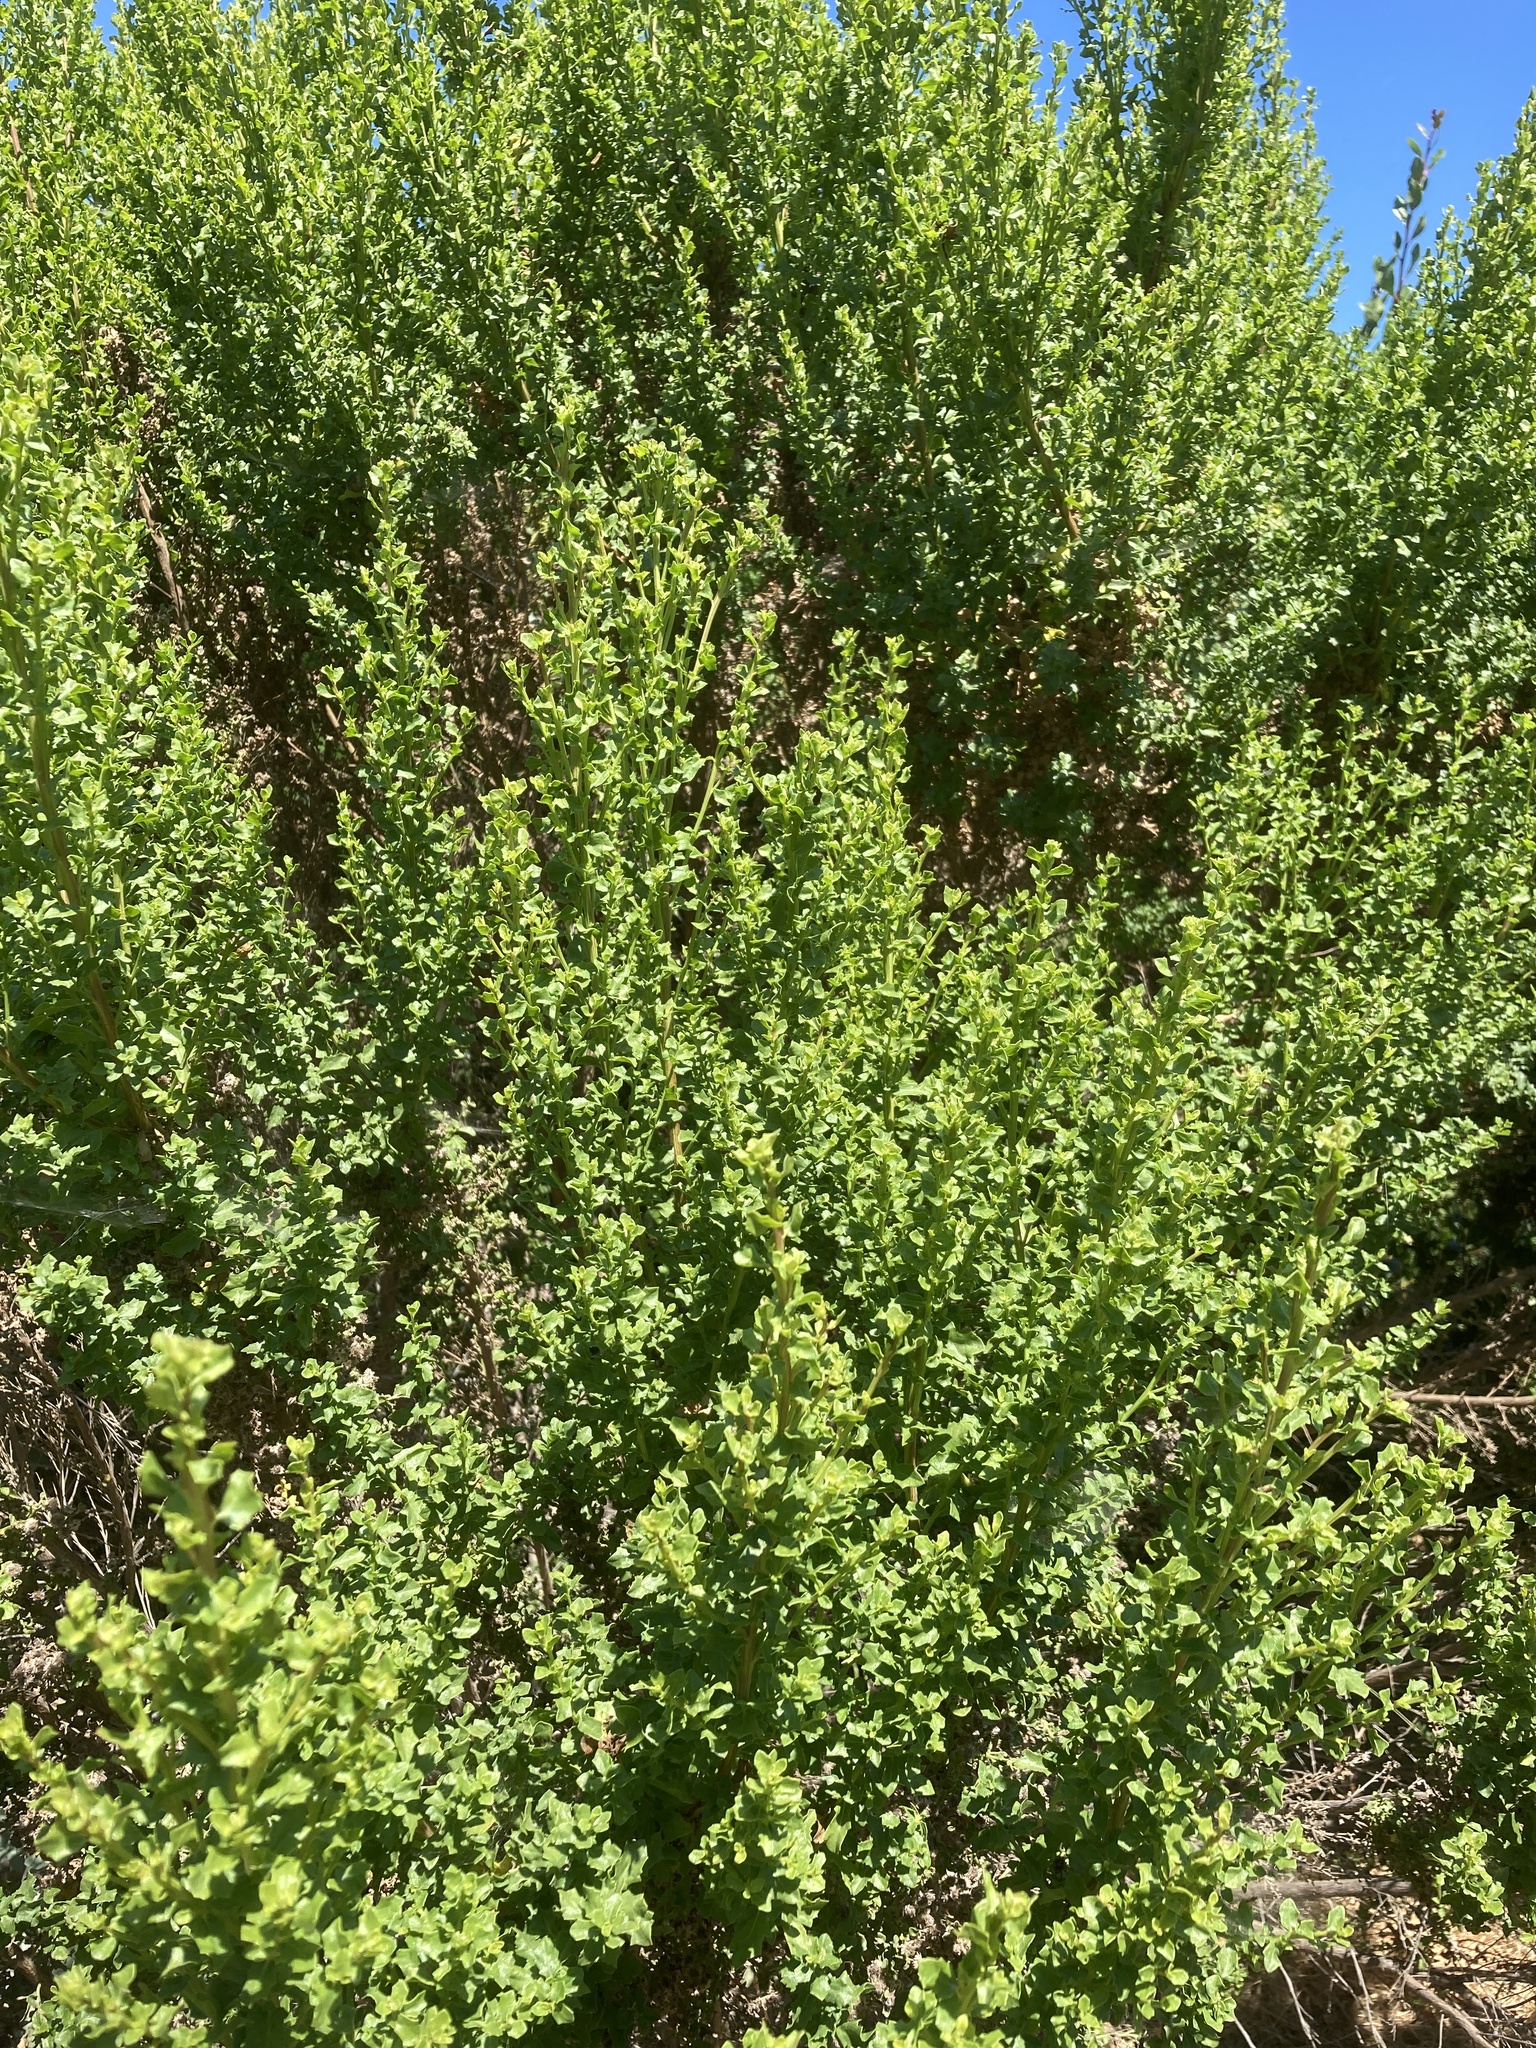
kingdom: Plantae
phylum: Tracheophyta
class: Magnoliopsida
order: Asterales
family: Asteraceae
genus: Baccharis
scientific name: Baccharis pilularis
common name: Coyotebrush
